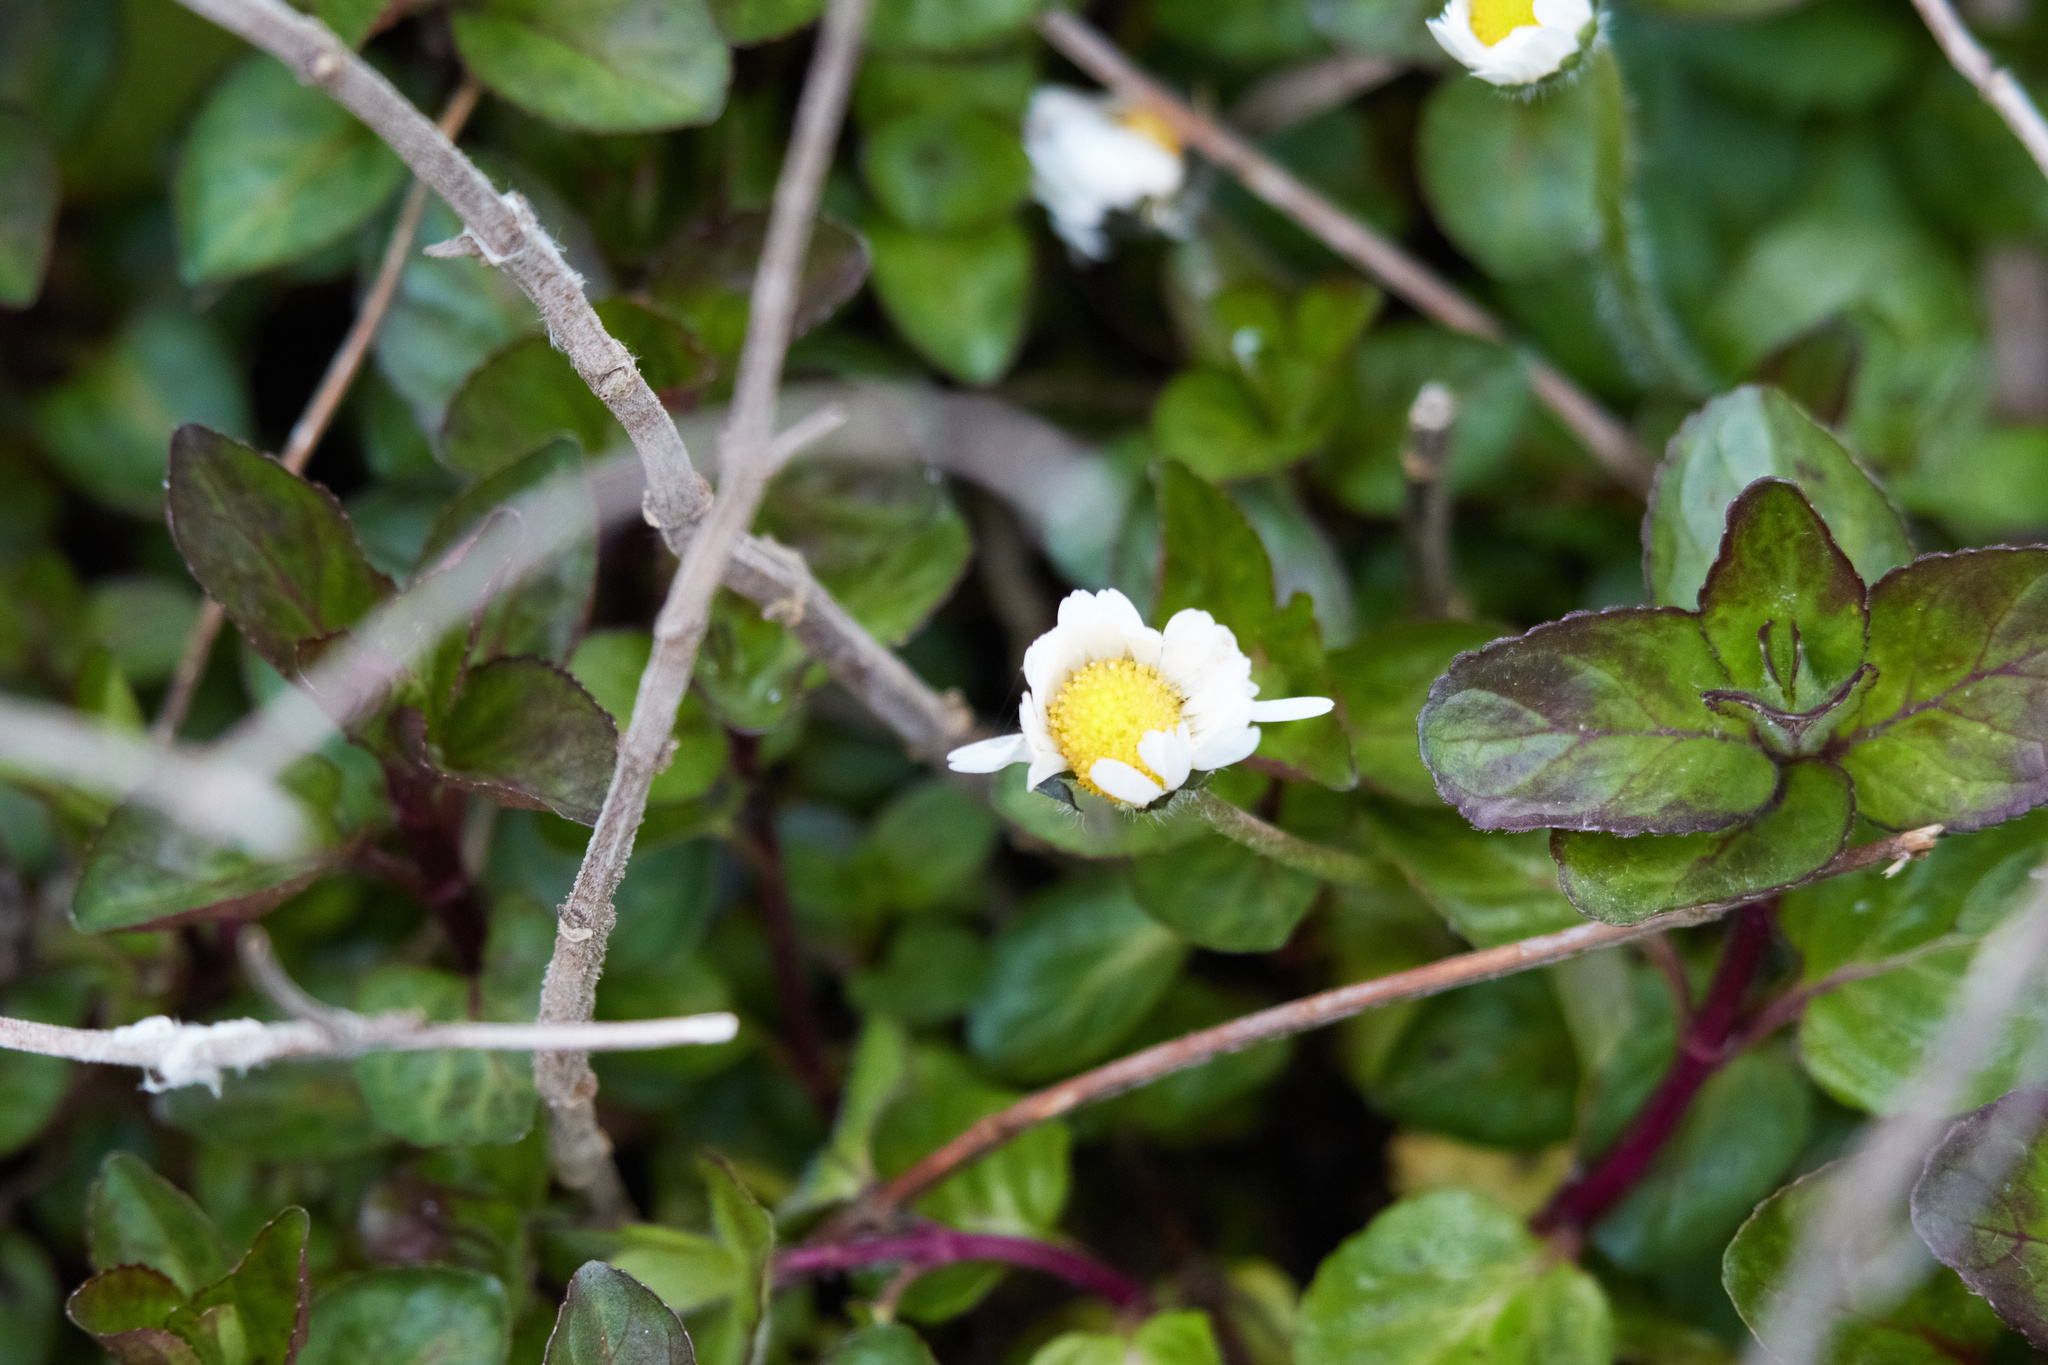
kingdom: Plantae
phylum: Tracheophyta
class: Magnoliopsida
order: Asterales
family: Asteraceae
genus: Bellis
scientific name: Bellis perennis
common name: Lawndaisy
